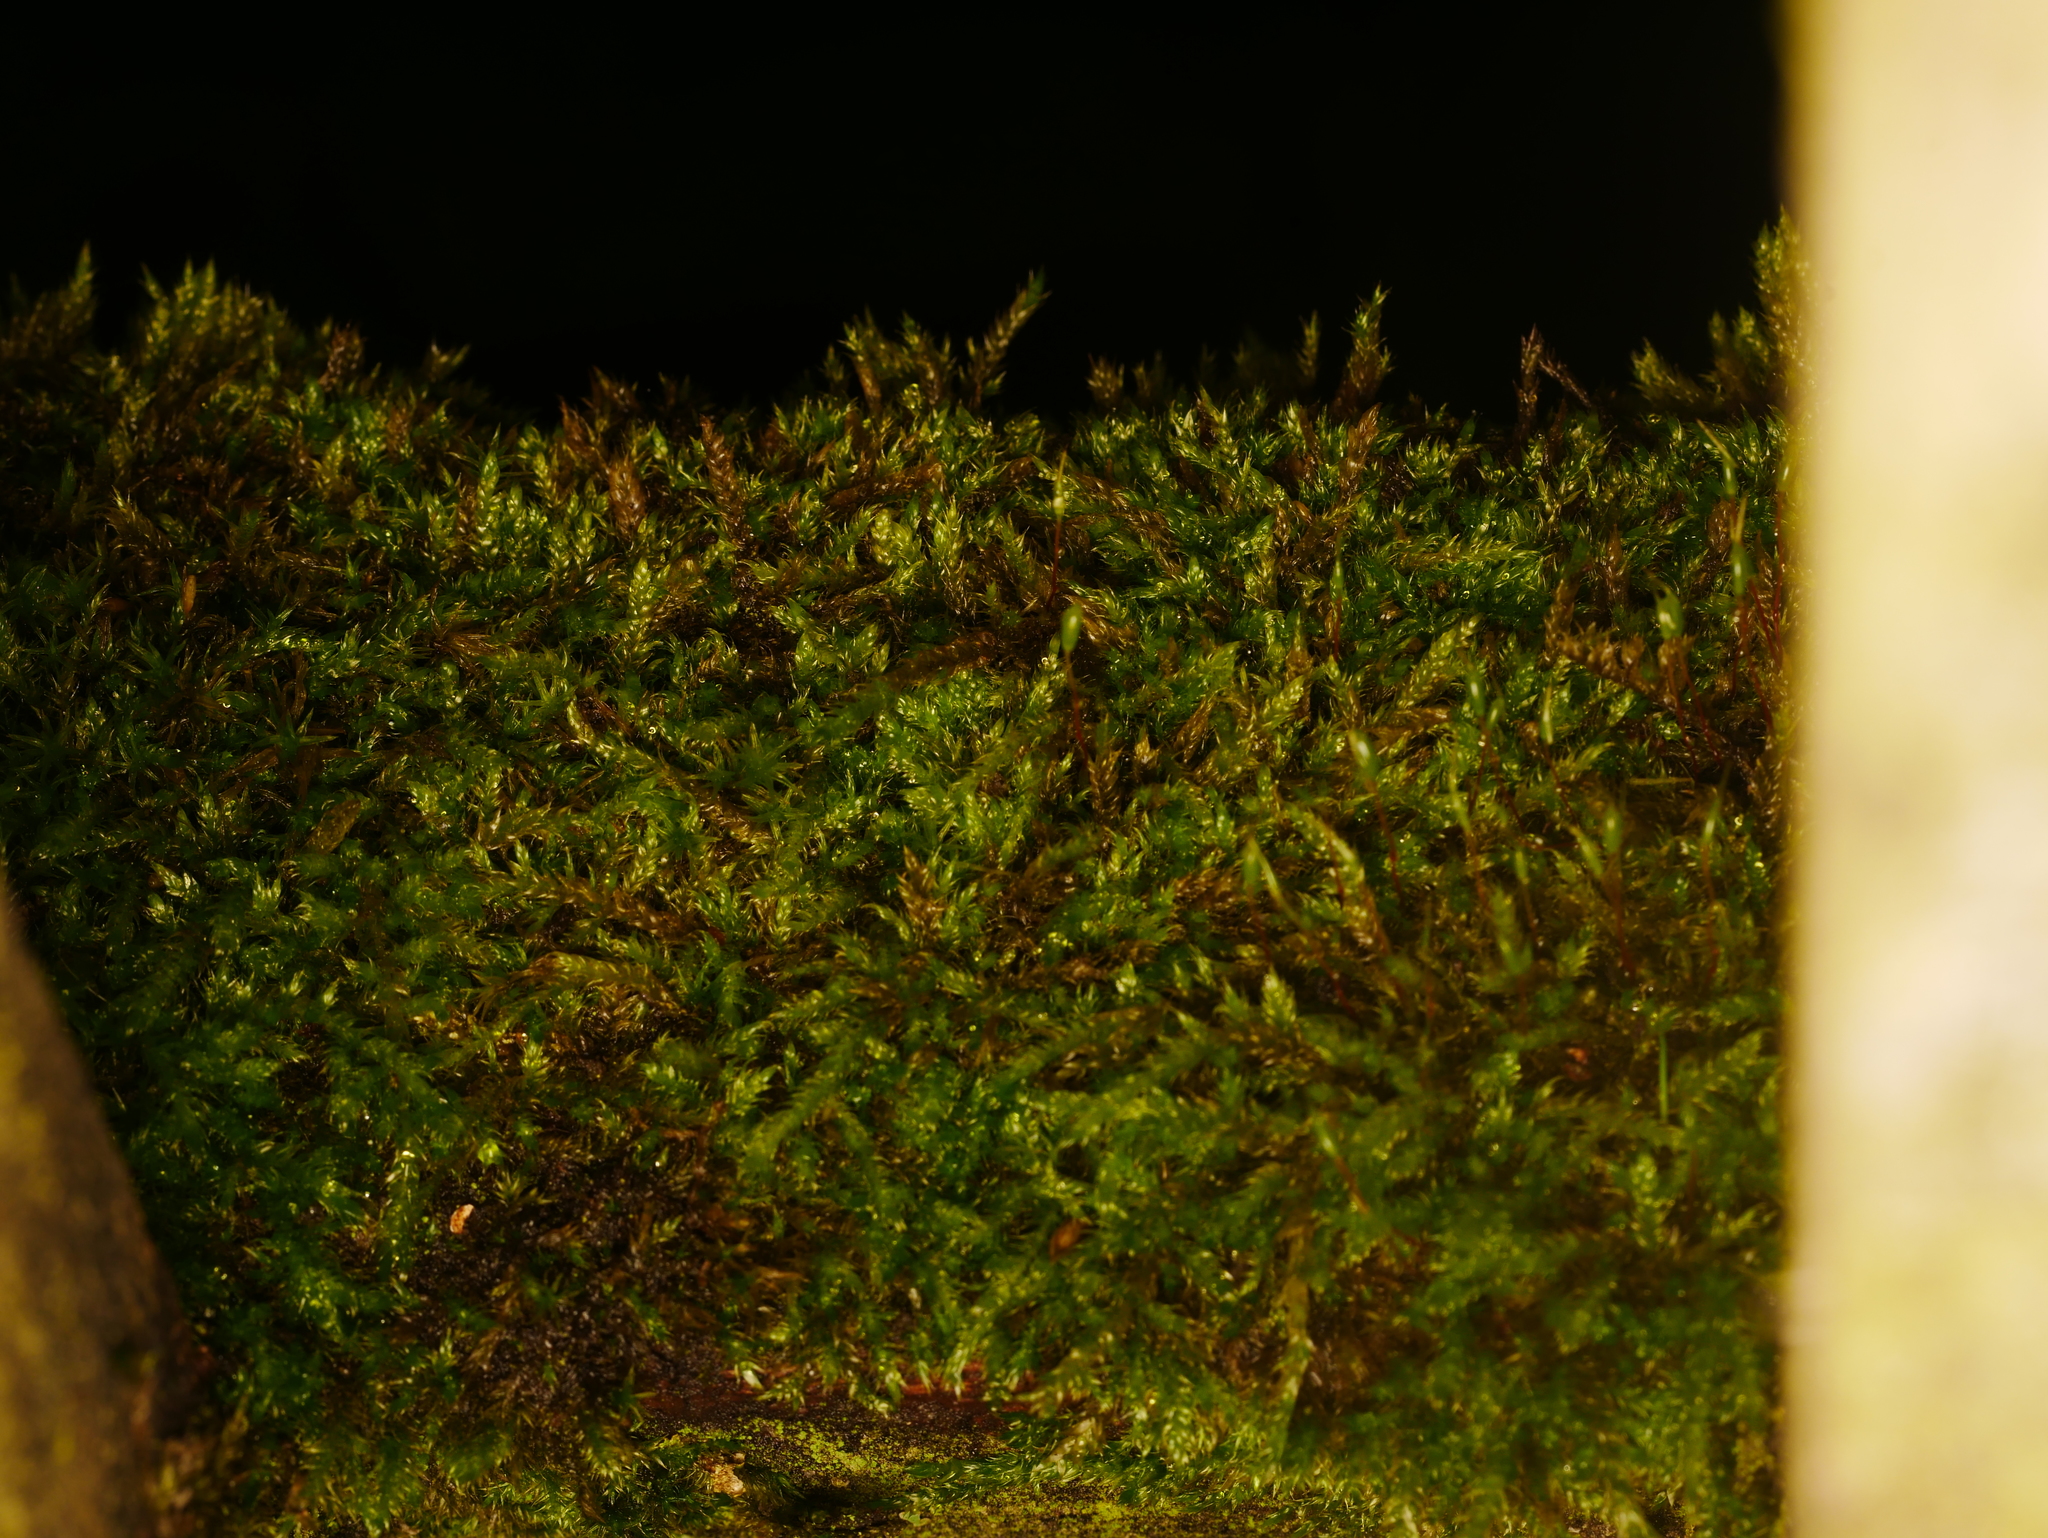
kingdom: Plantae
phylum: Bryophyta
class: Bryopsida
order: Hypnales
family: Hypnaceae
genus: Hypnum
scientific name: Hypnum cupressiforme
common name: Cypress-leaved plait-moss
